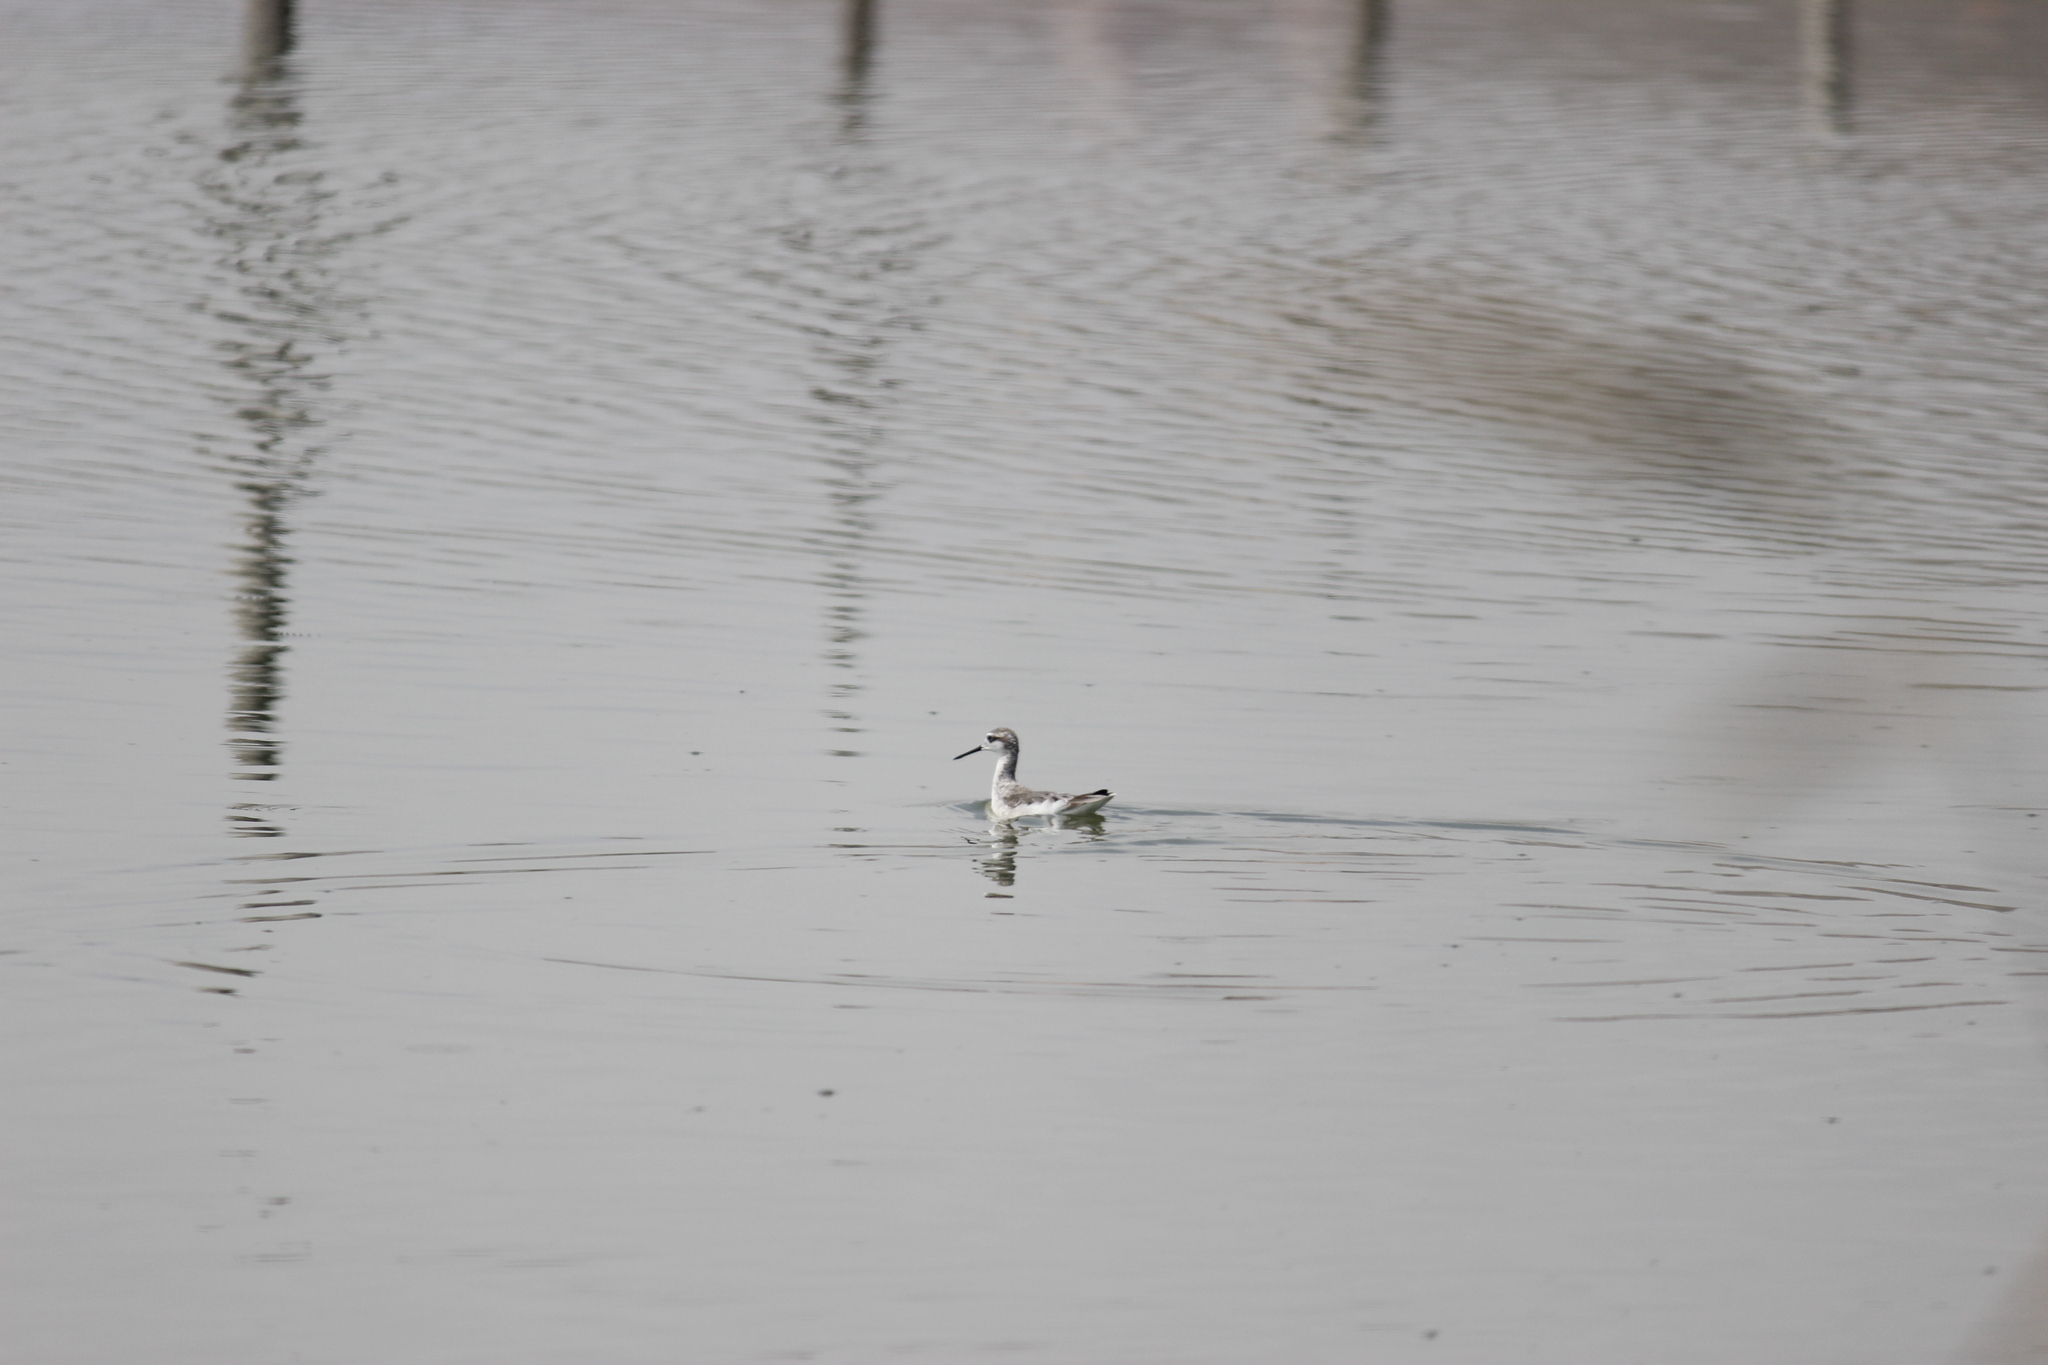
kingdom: Animalia
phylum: Chordata
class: Aves
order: Charadriiformes
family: Scolopacidae
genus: Phalaropus
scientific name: Phalaropus tricolor
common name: Wilson's phalarope
